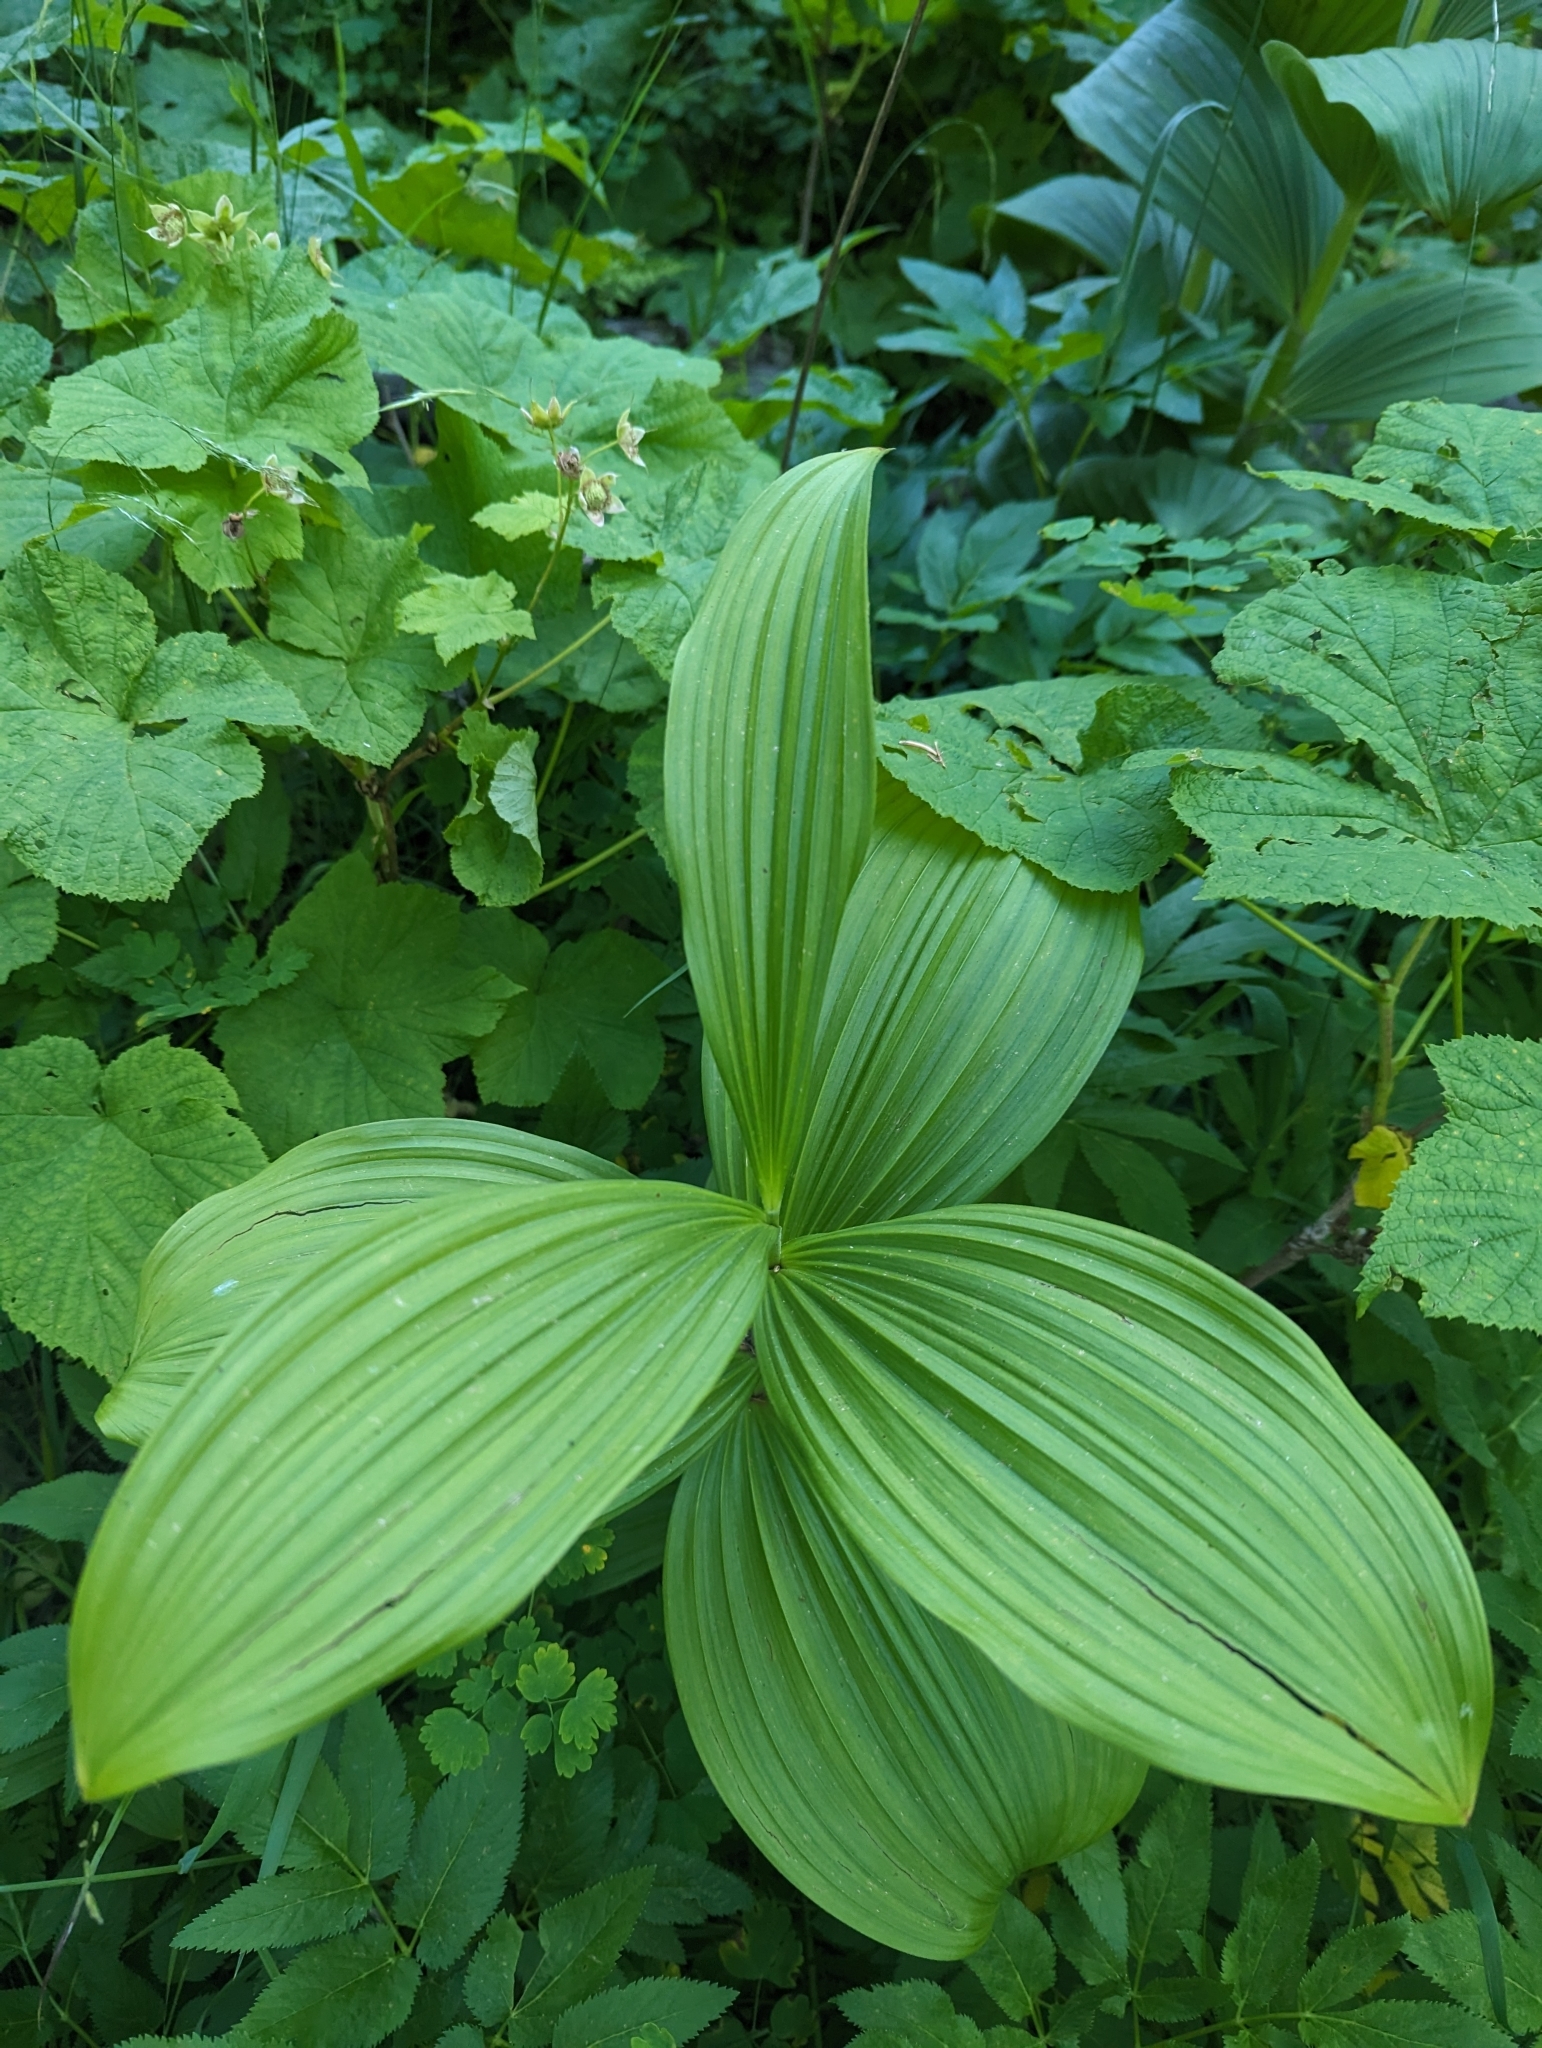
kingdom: Plantae
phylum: Tracheophyta
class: Liliopsida
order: Liliales
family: Melanthiaceae
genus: Veratrum
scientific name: Veratrum viride
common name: American false hellebore
